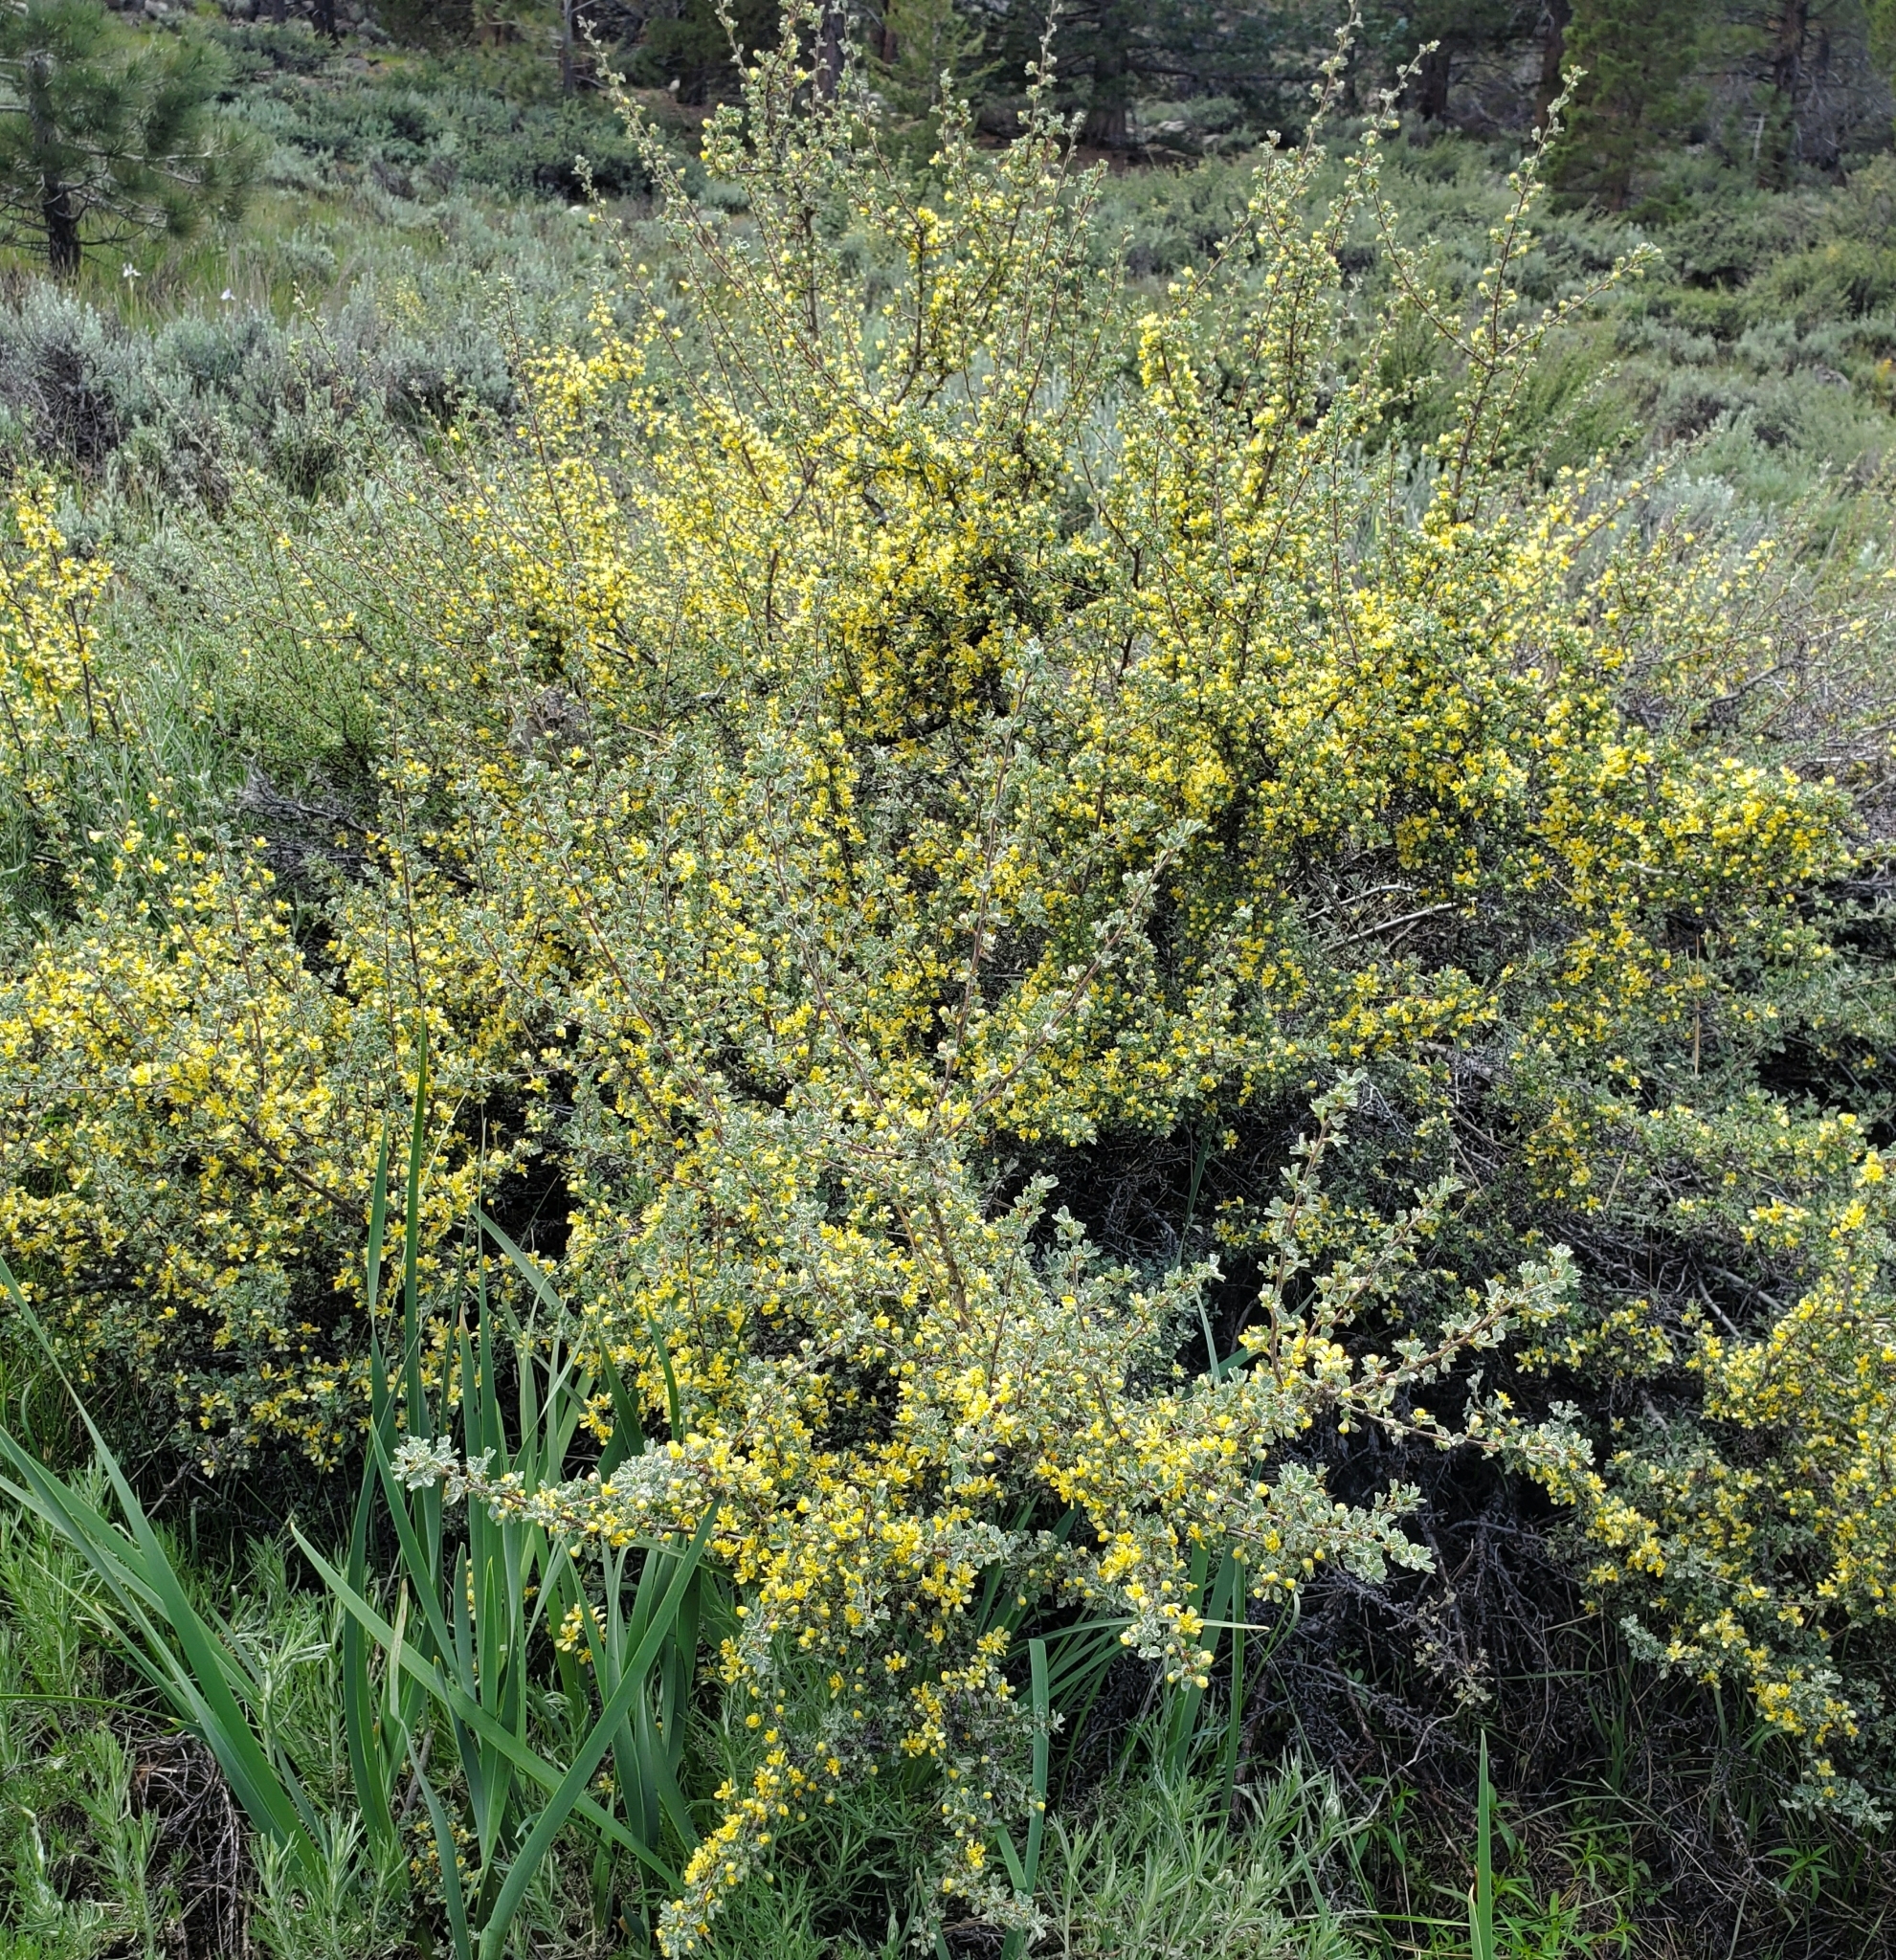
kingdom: Plantae
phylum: Tracheophyta
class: Magnoliopsida
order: Rosales
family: Rosaceae
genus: Purshia
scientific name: Purshia tridentata
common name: Antelope bitterbrush
